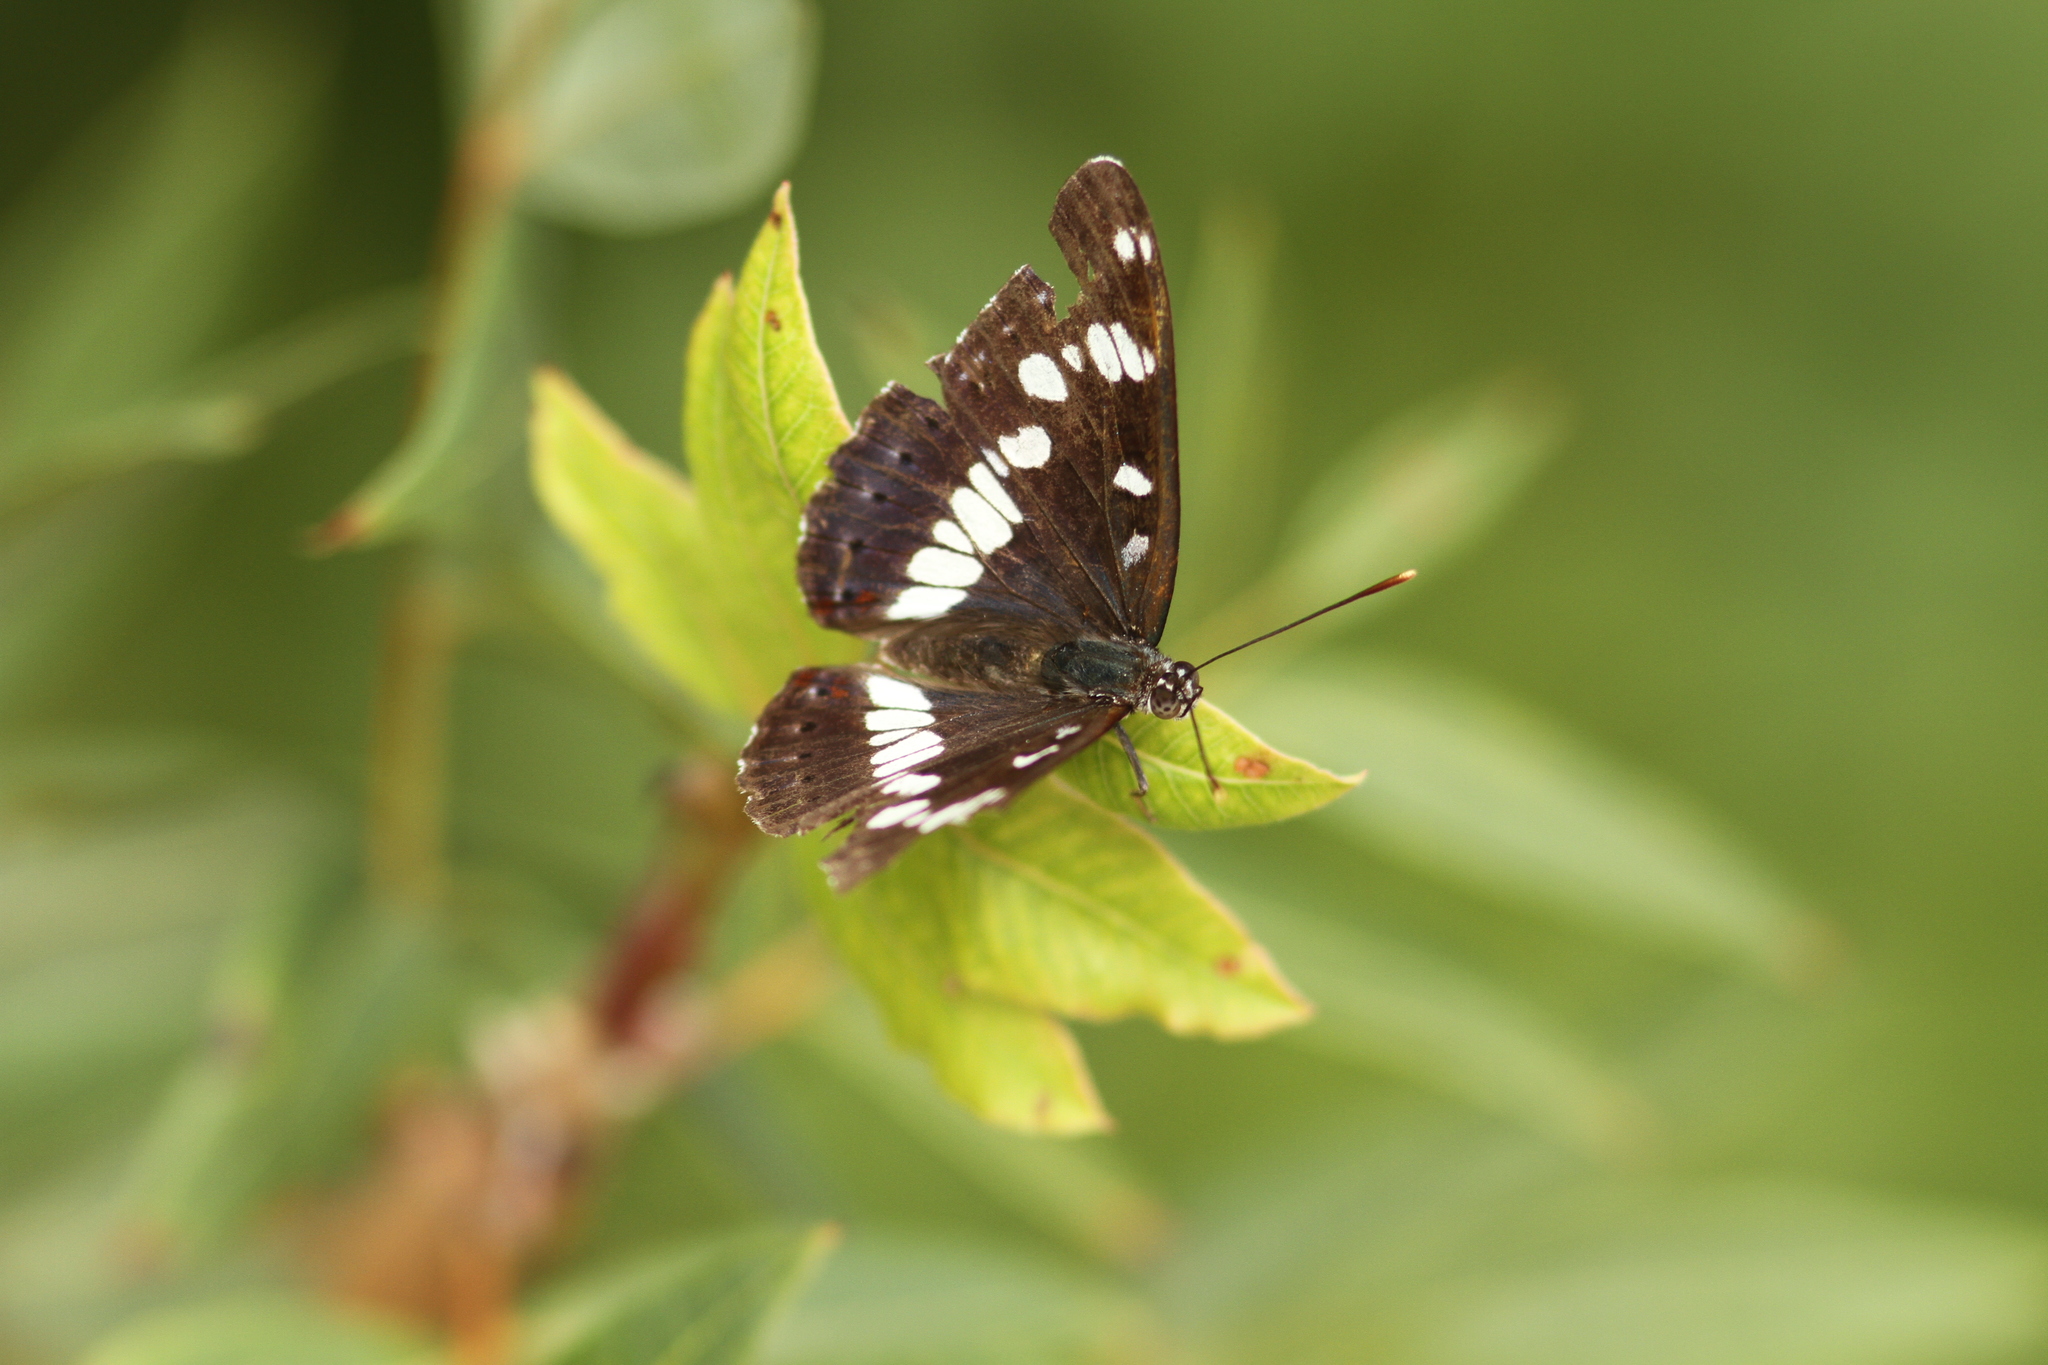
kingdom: Animalia
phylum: Arthropoda
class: Insecta
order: Lepidoptera
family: Nymphalidae
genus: Limenitis
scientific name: Limenitis reducta
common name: Southern white admiral
